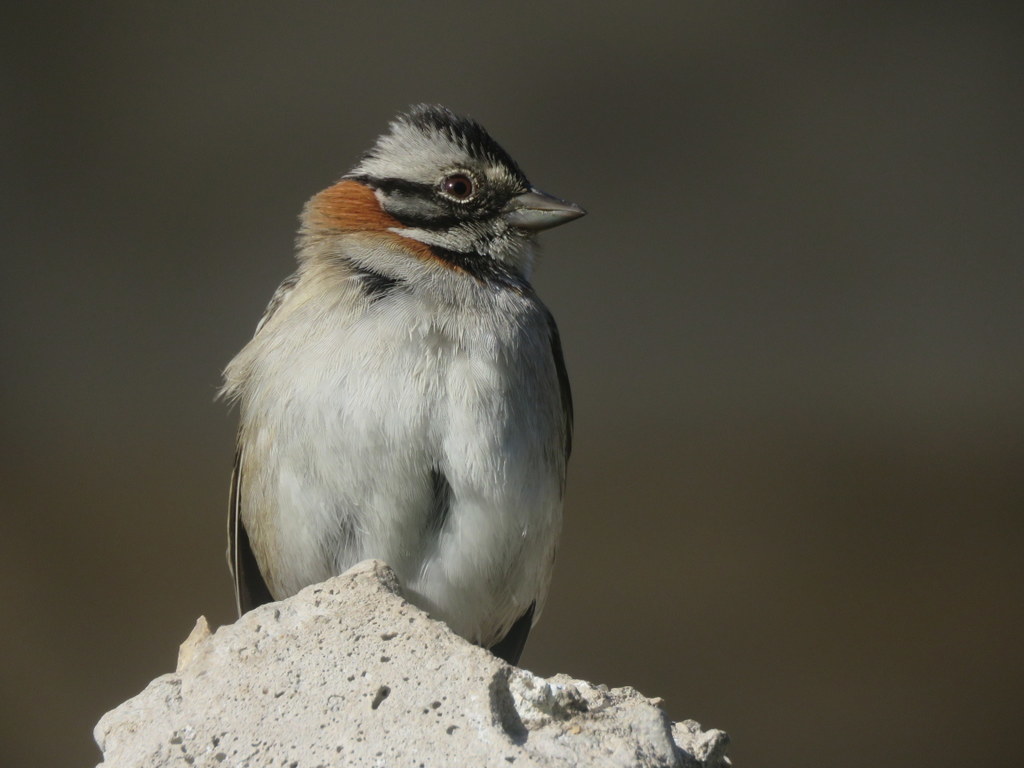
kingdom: Animalia
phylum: Chordata
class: Aves
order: Passeriformes
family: Passerellidae
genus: Zonotrichia
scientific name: Zonotrichia capensis
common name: Rufous-collared sparrow
